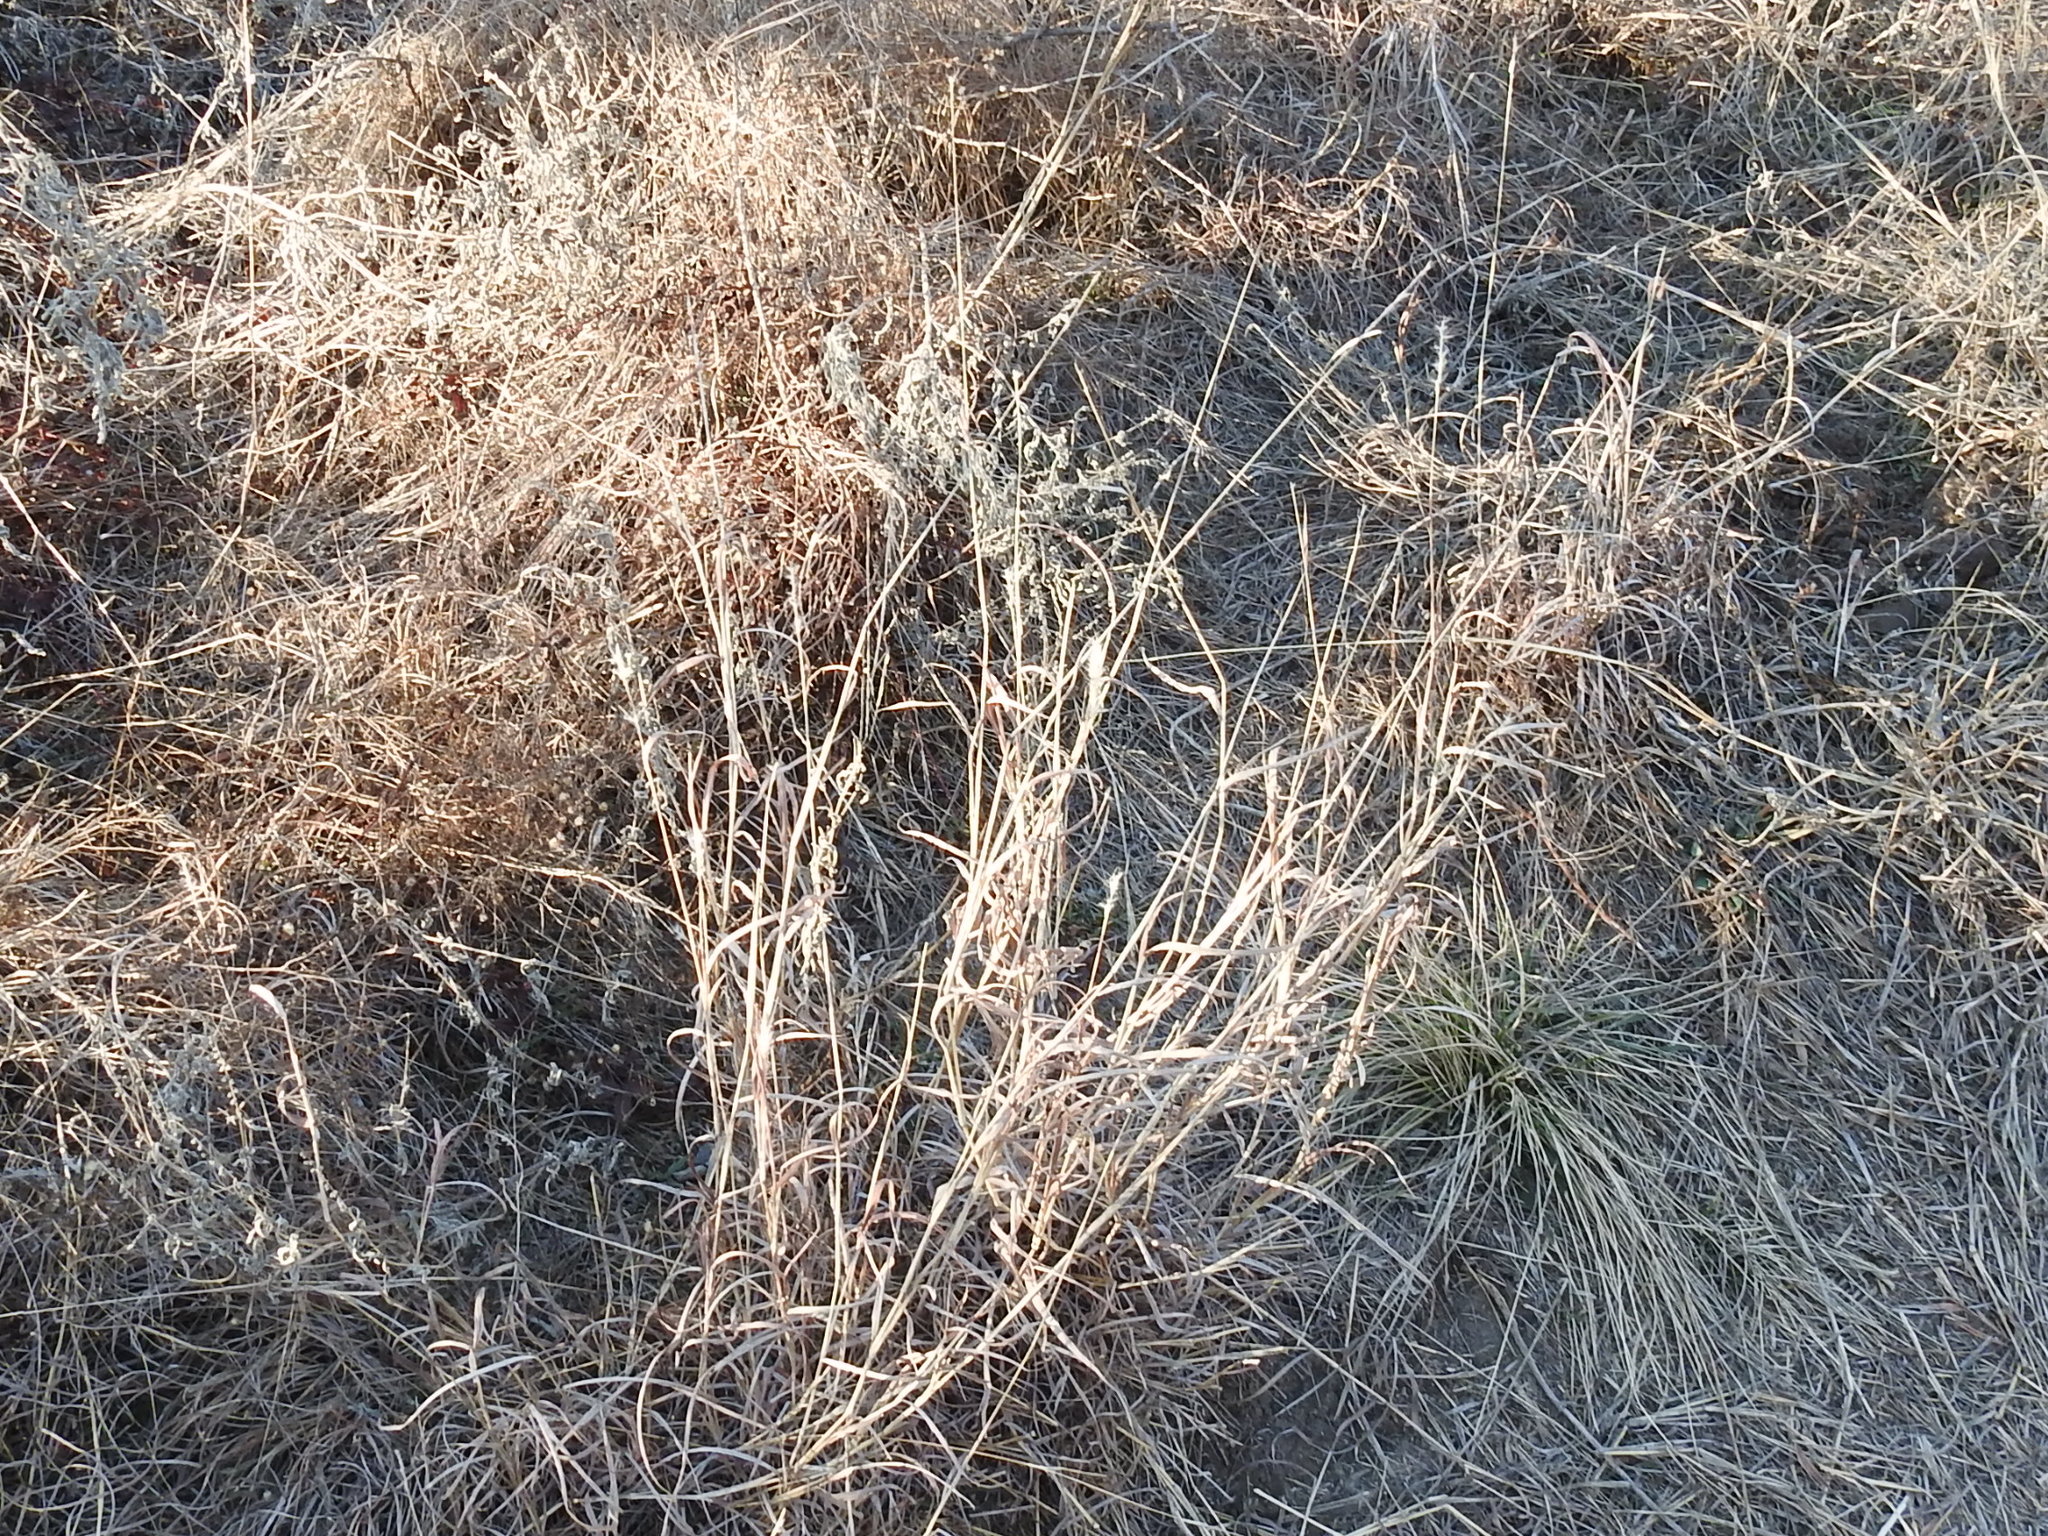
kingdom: Plantae
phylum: Tracheophyta
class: Liliopsida
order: Poales
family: Poaceae
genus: Bothriochloa
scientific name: Bothriochloa torreyana
